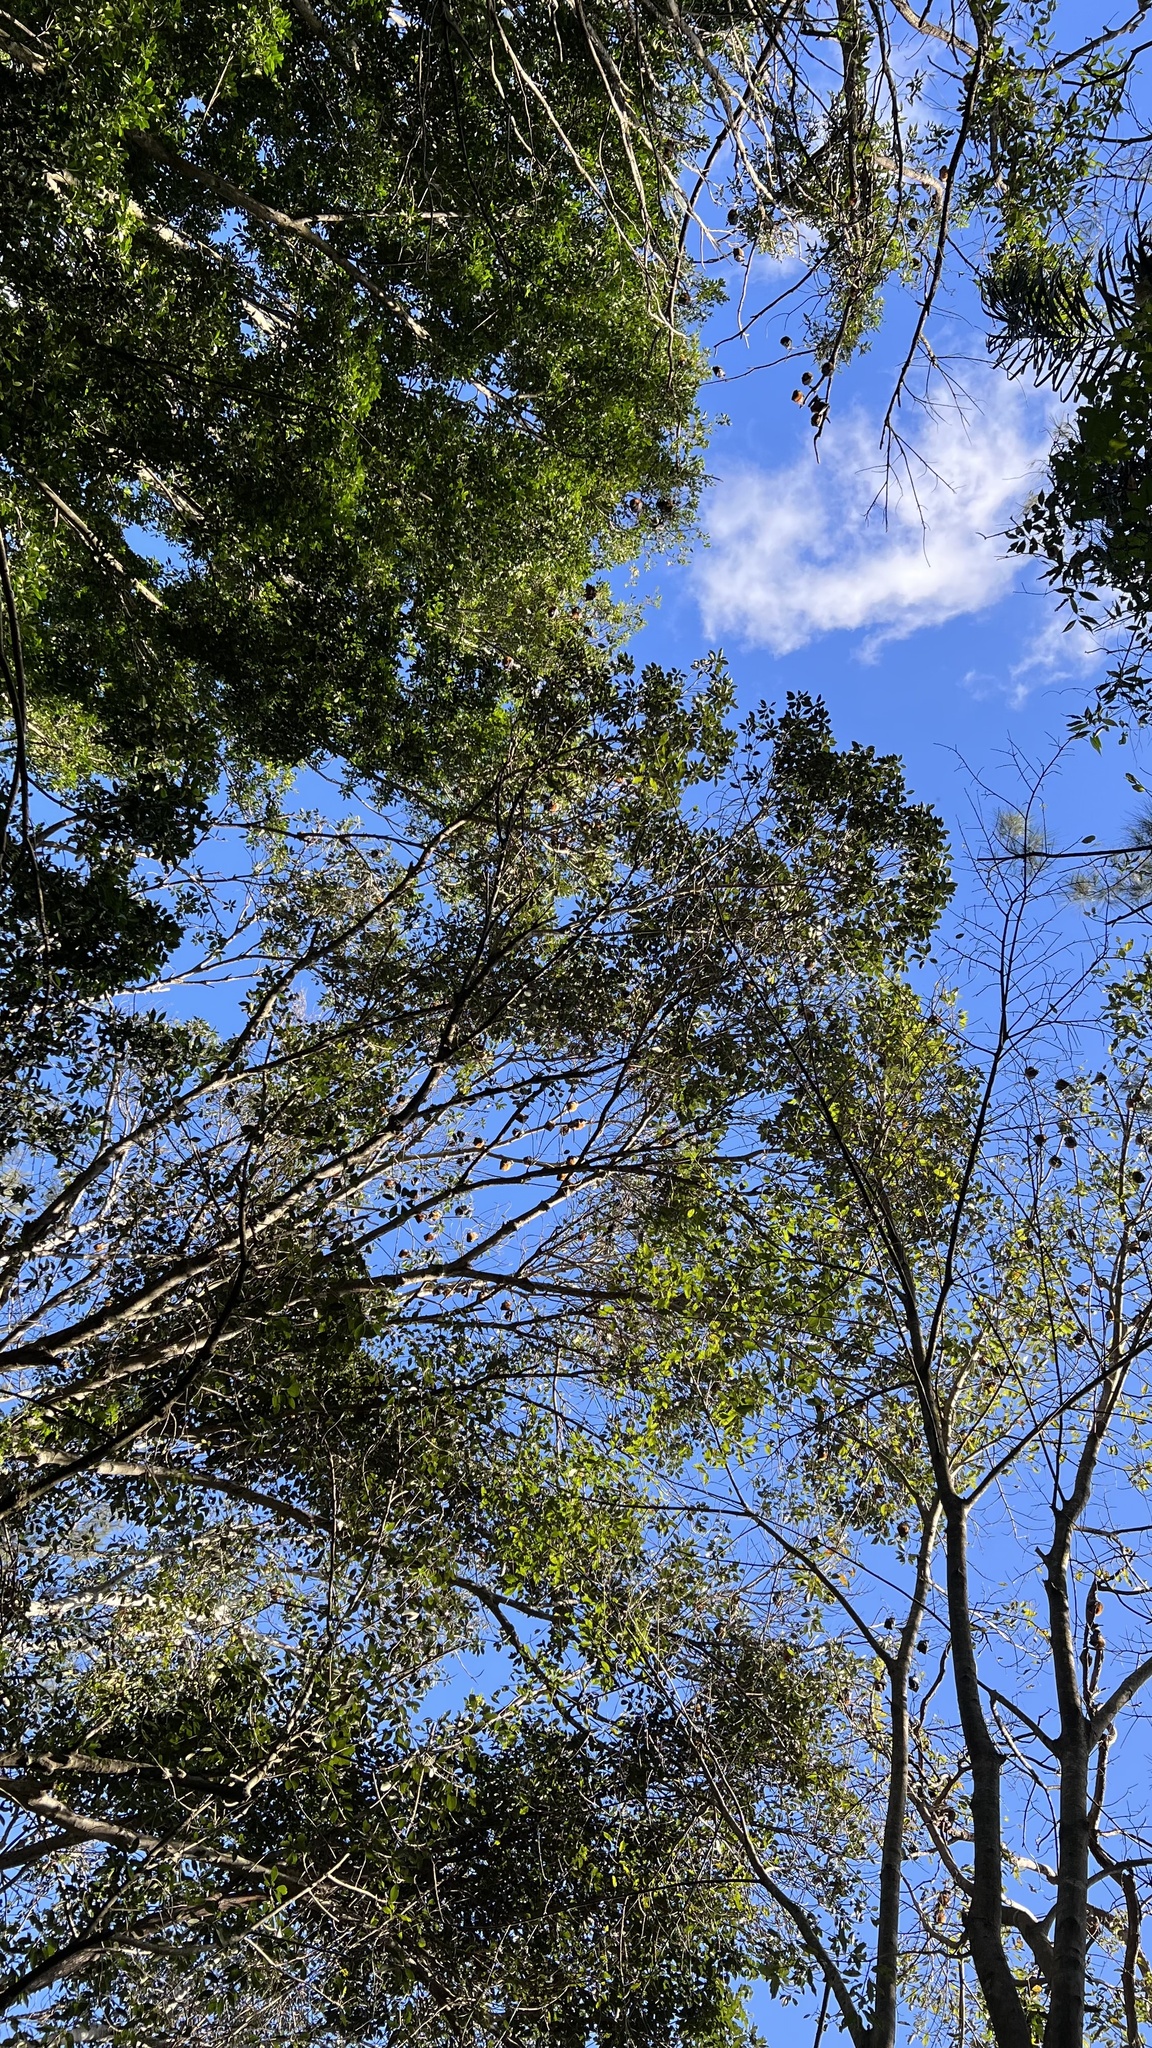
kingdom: Animalia
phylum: Chordata
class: Mammalia
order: Chiroptera
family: Pteropodidae
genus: Pteropus
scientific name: Pteropus poliocephalus
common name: Gray-headed flying fox
